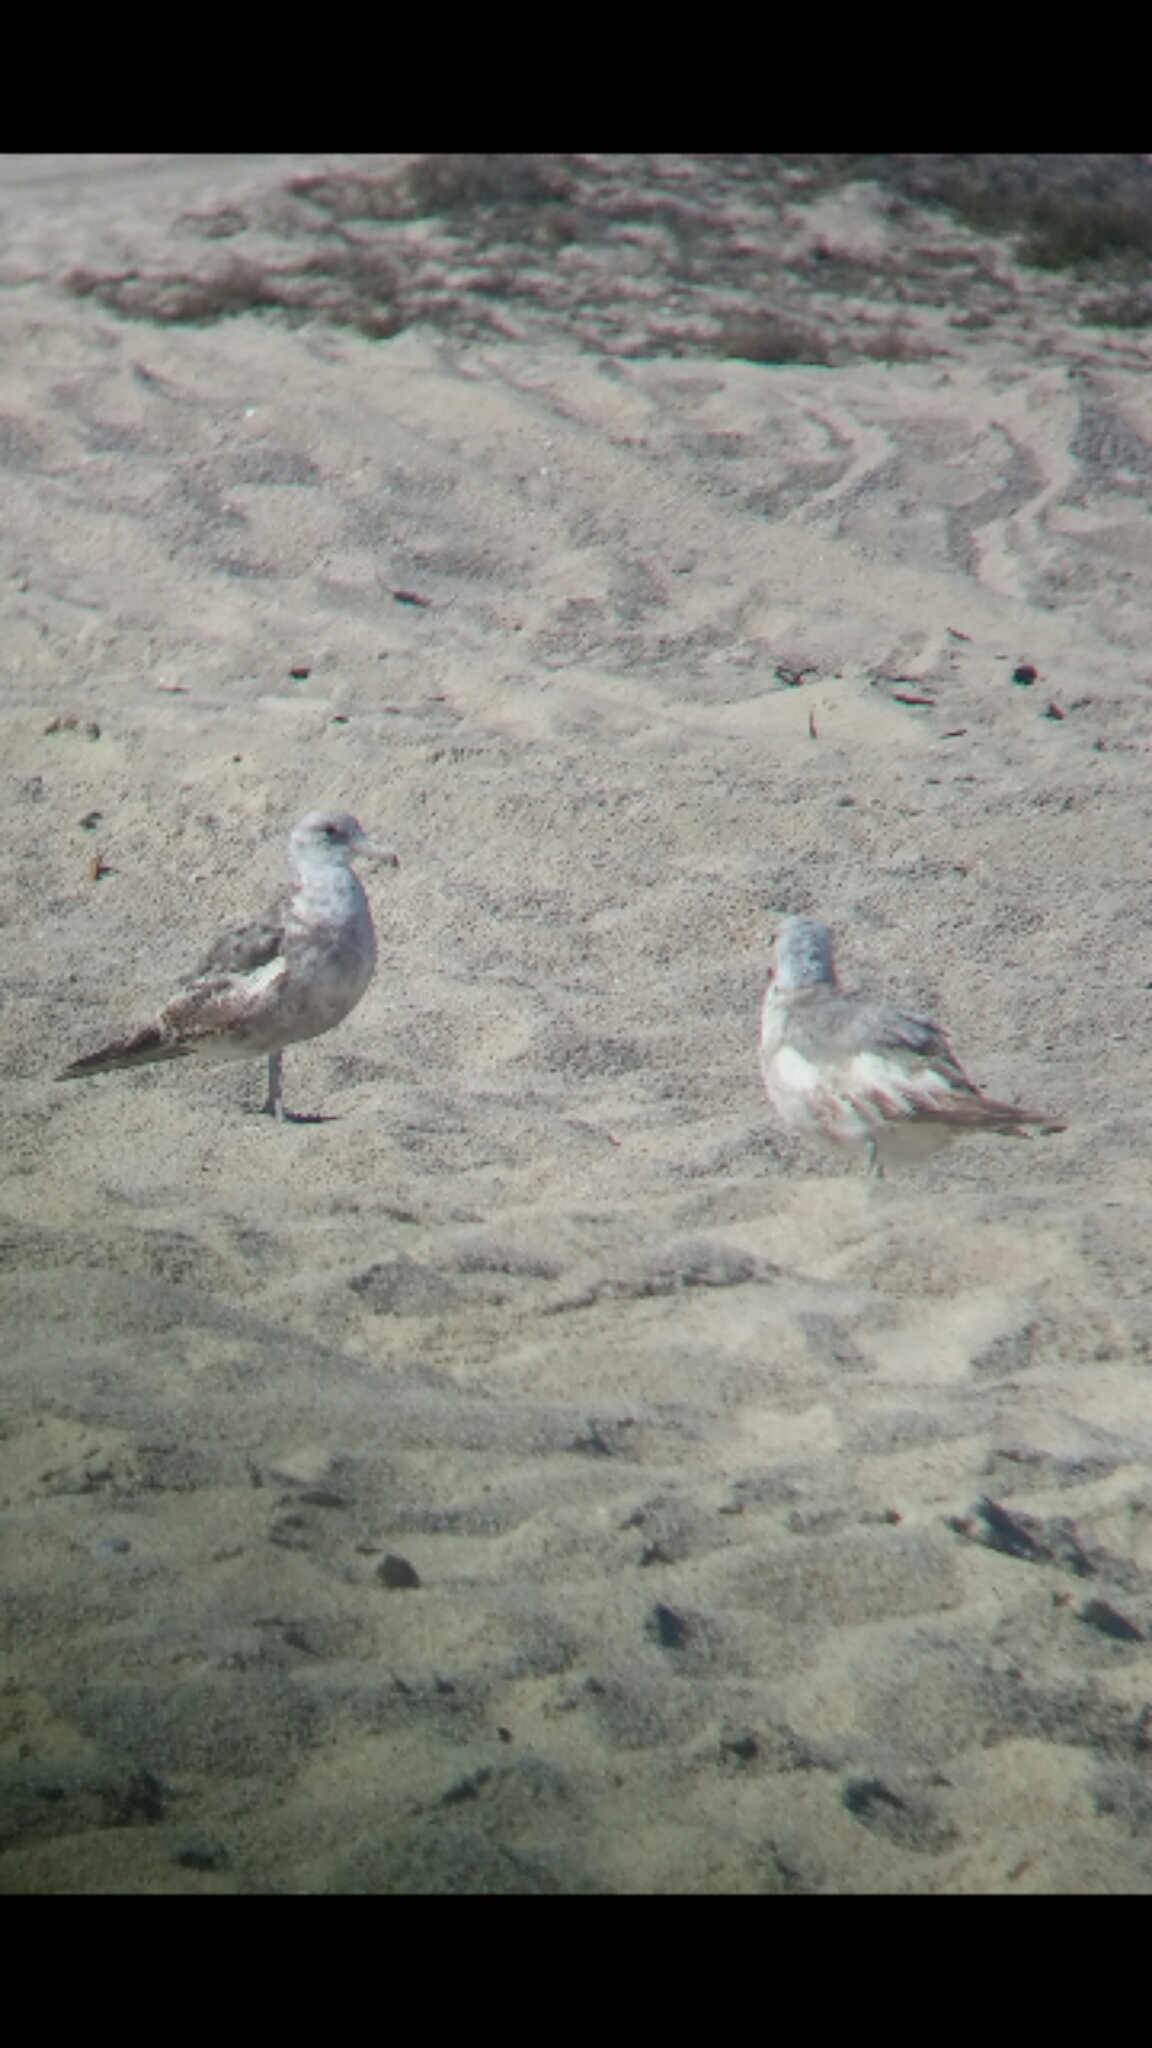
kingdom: Animalia
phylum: Chordata
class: Aves
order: Charadriiformes
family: Laridae
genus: Larus
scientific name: Larus californicus
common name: California gull
